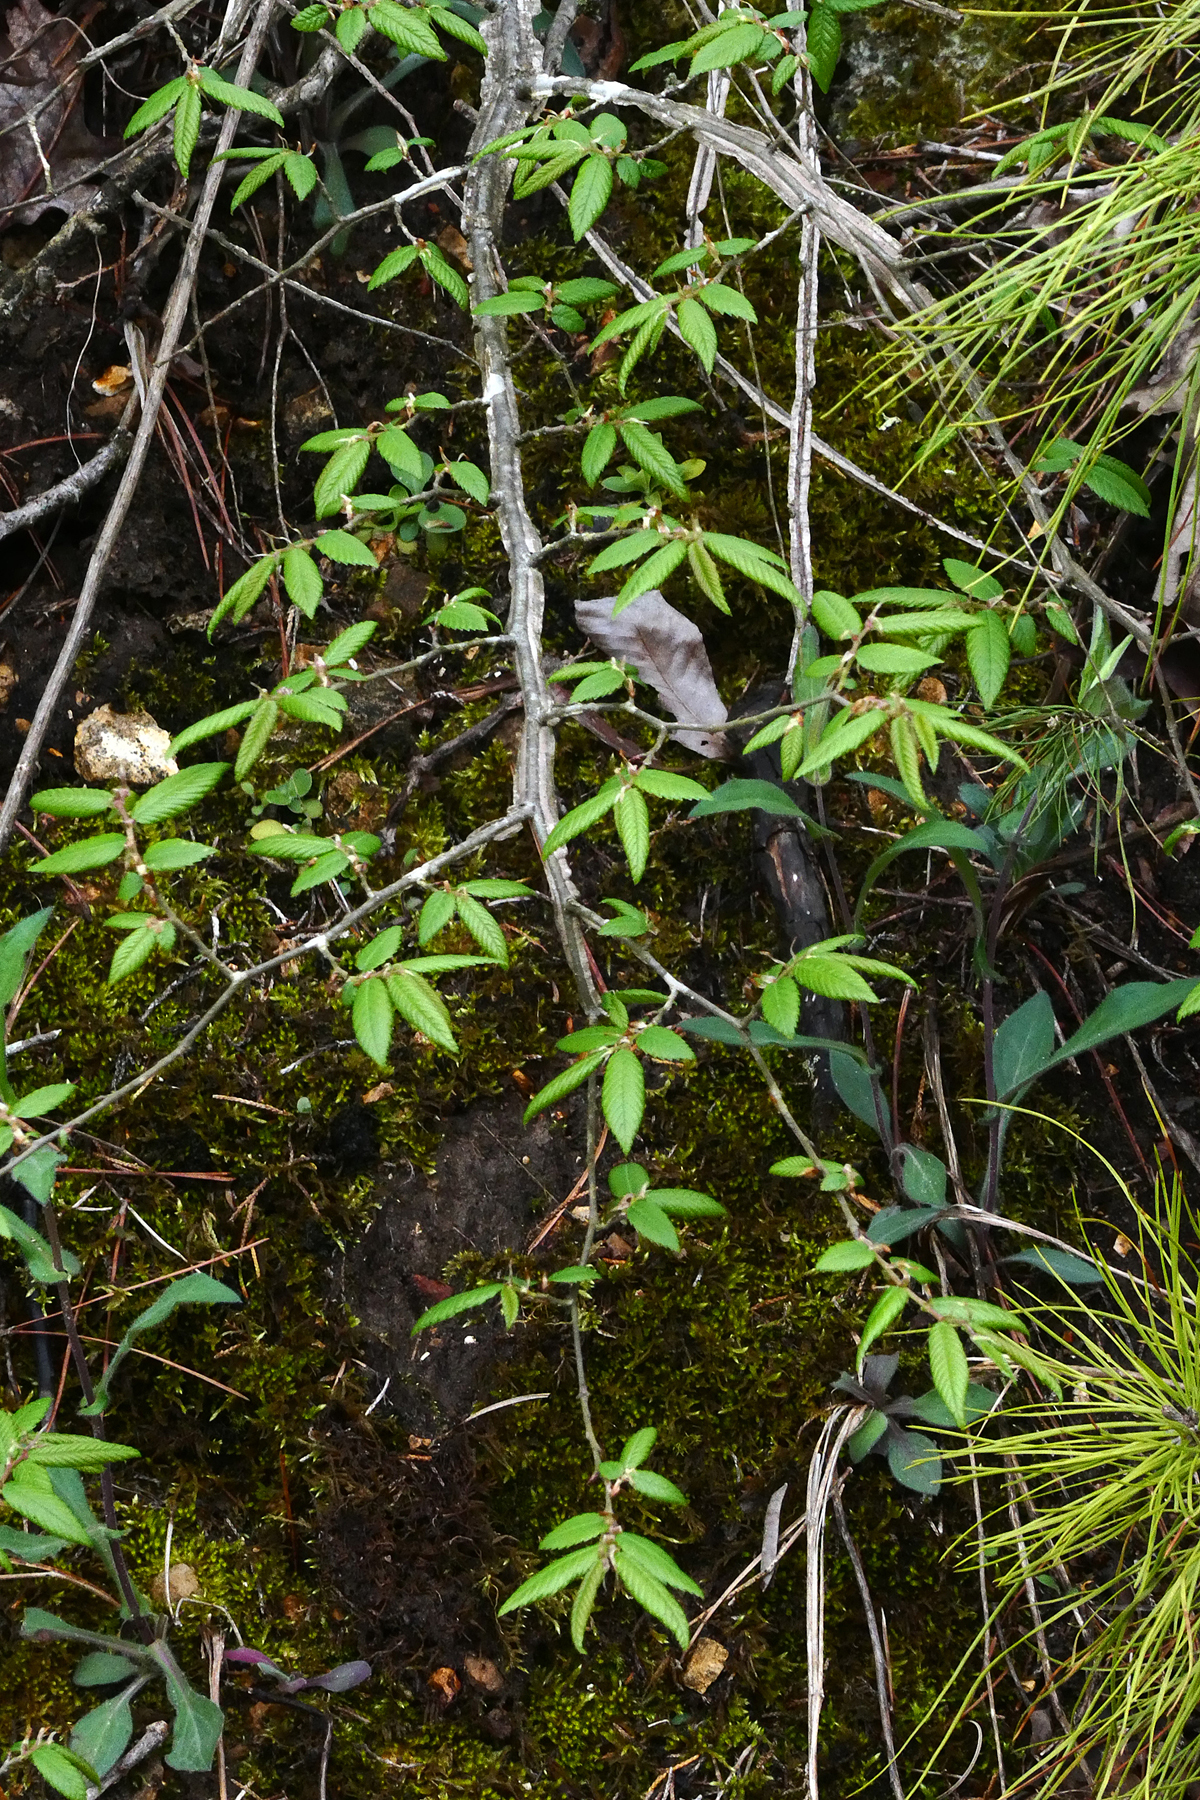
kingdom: Plantae
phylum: Tracheophyta
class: Magnoliopsida
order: Rosales
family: Ulmaceae
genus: Ulmus
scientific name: Ulmus alata
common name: Winged elm
